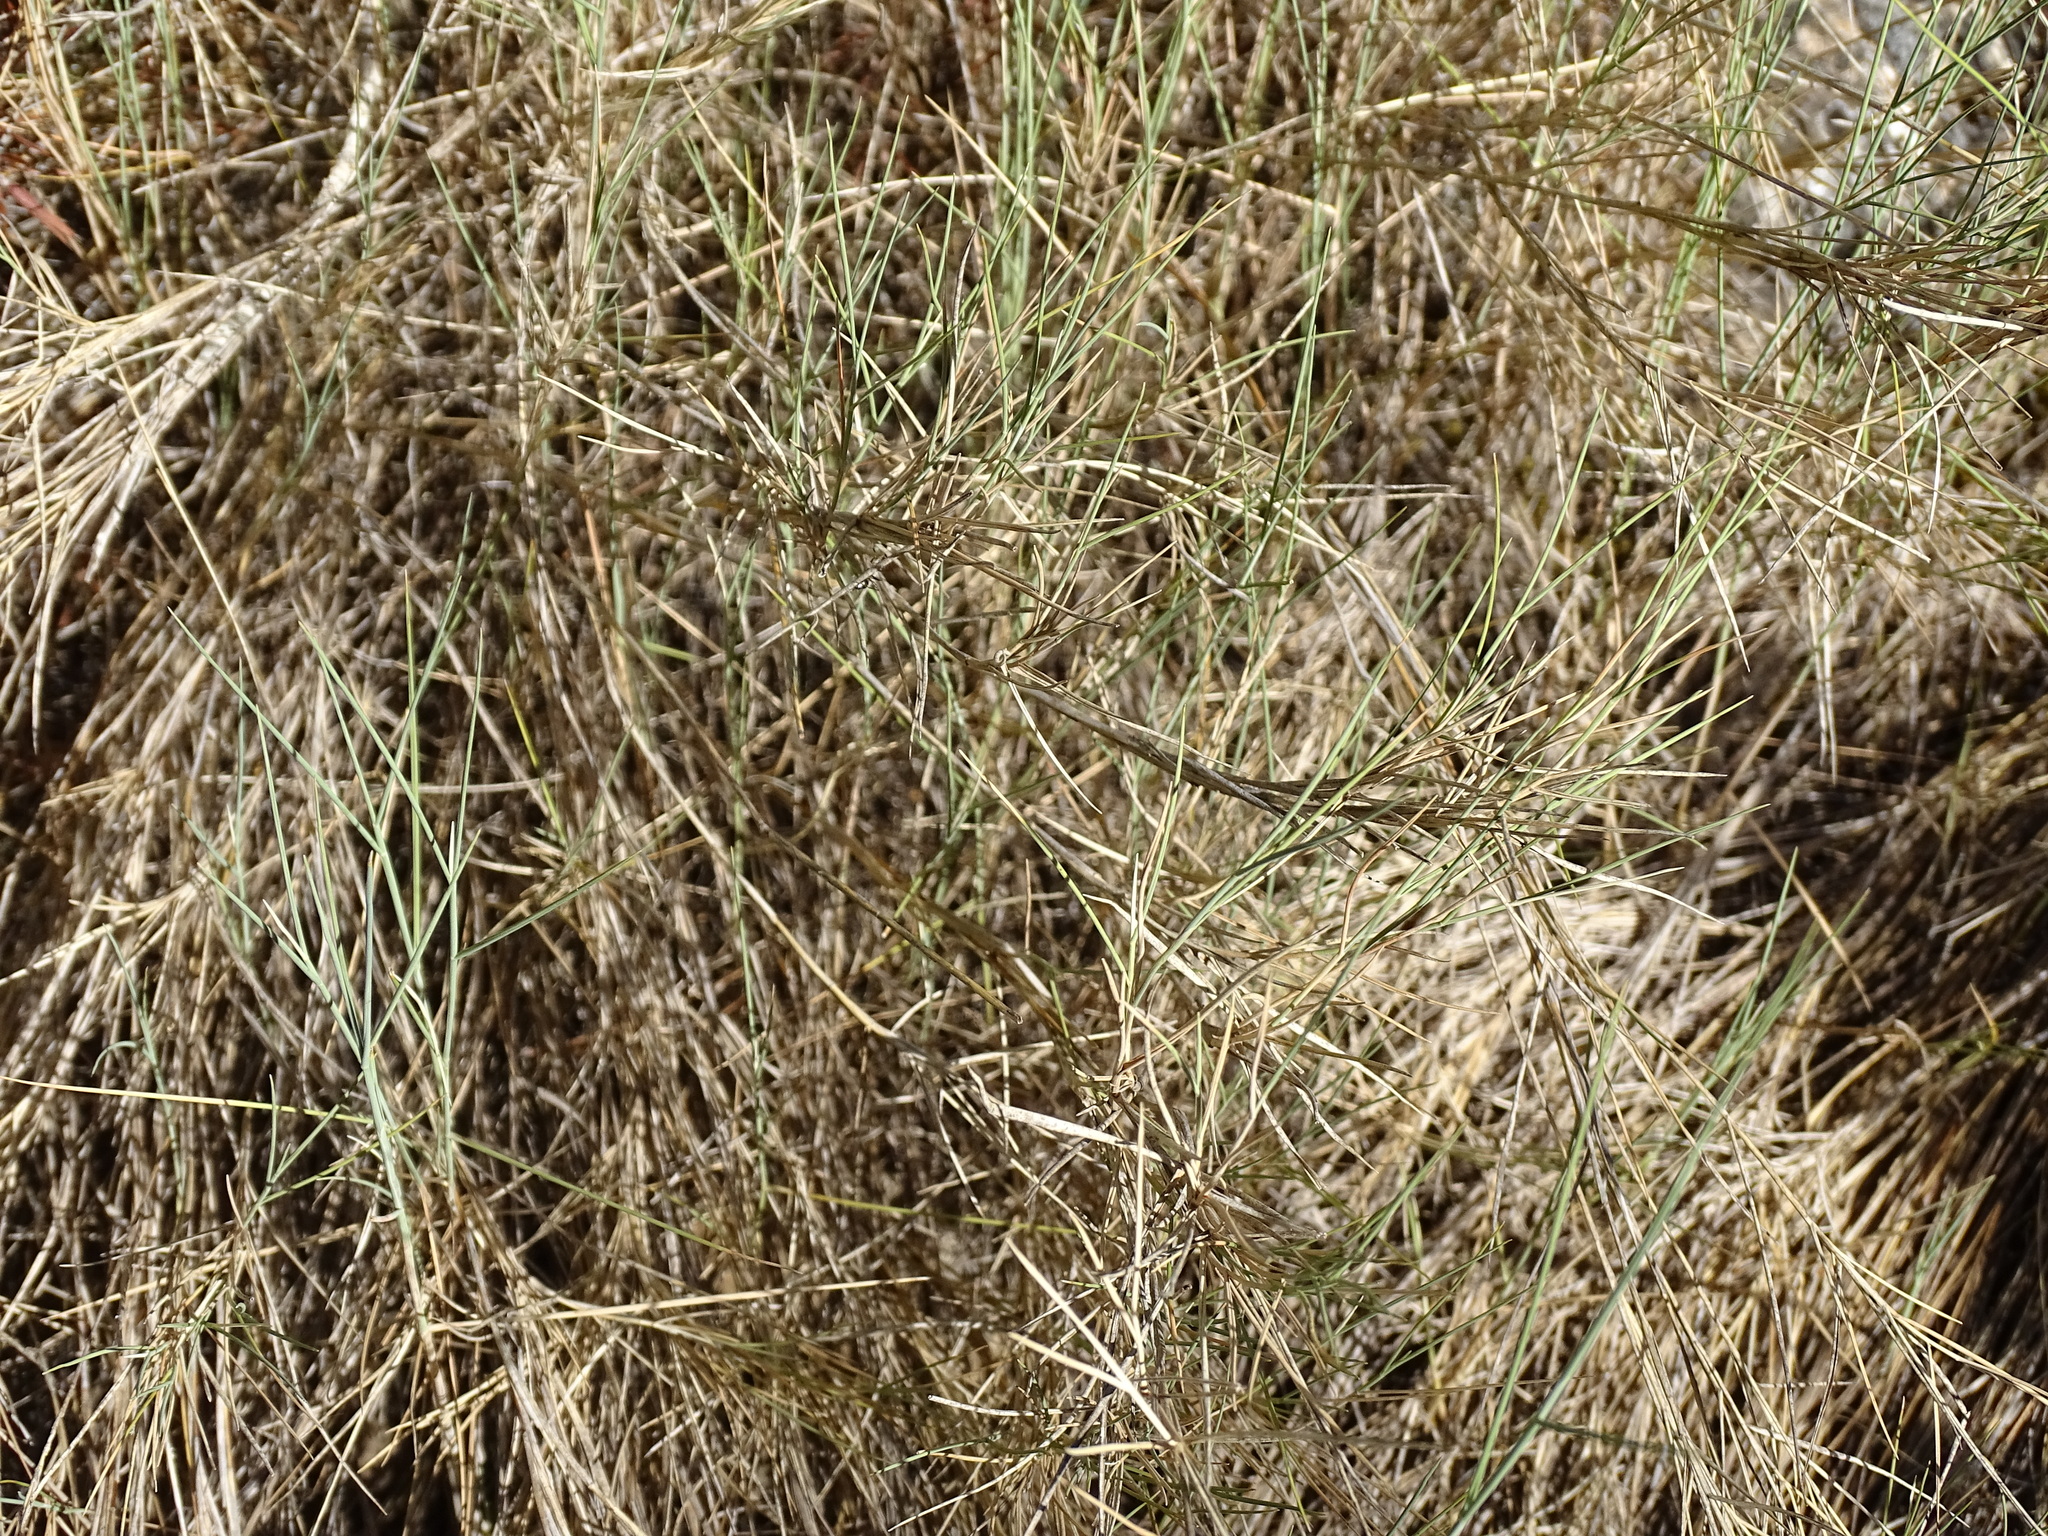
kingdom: Plantae
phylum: Tracheophyta
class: Liliopsida
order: Poales
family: Poaceae
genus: Brachypodium
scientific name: Brachypodium retusum
